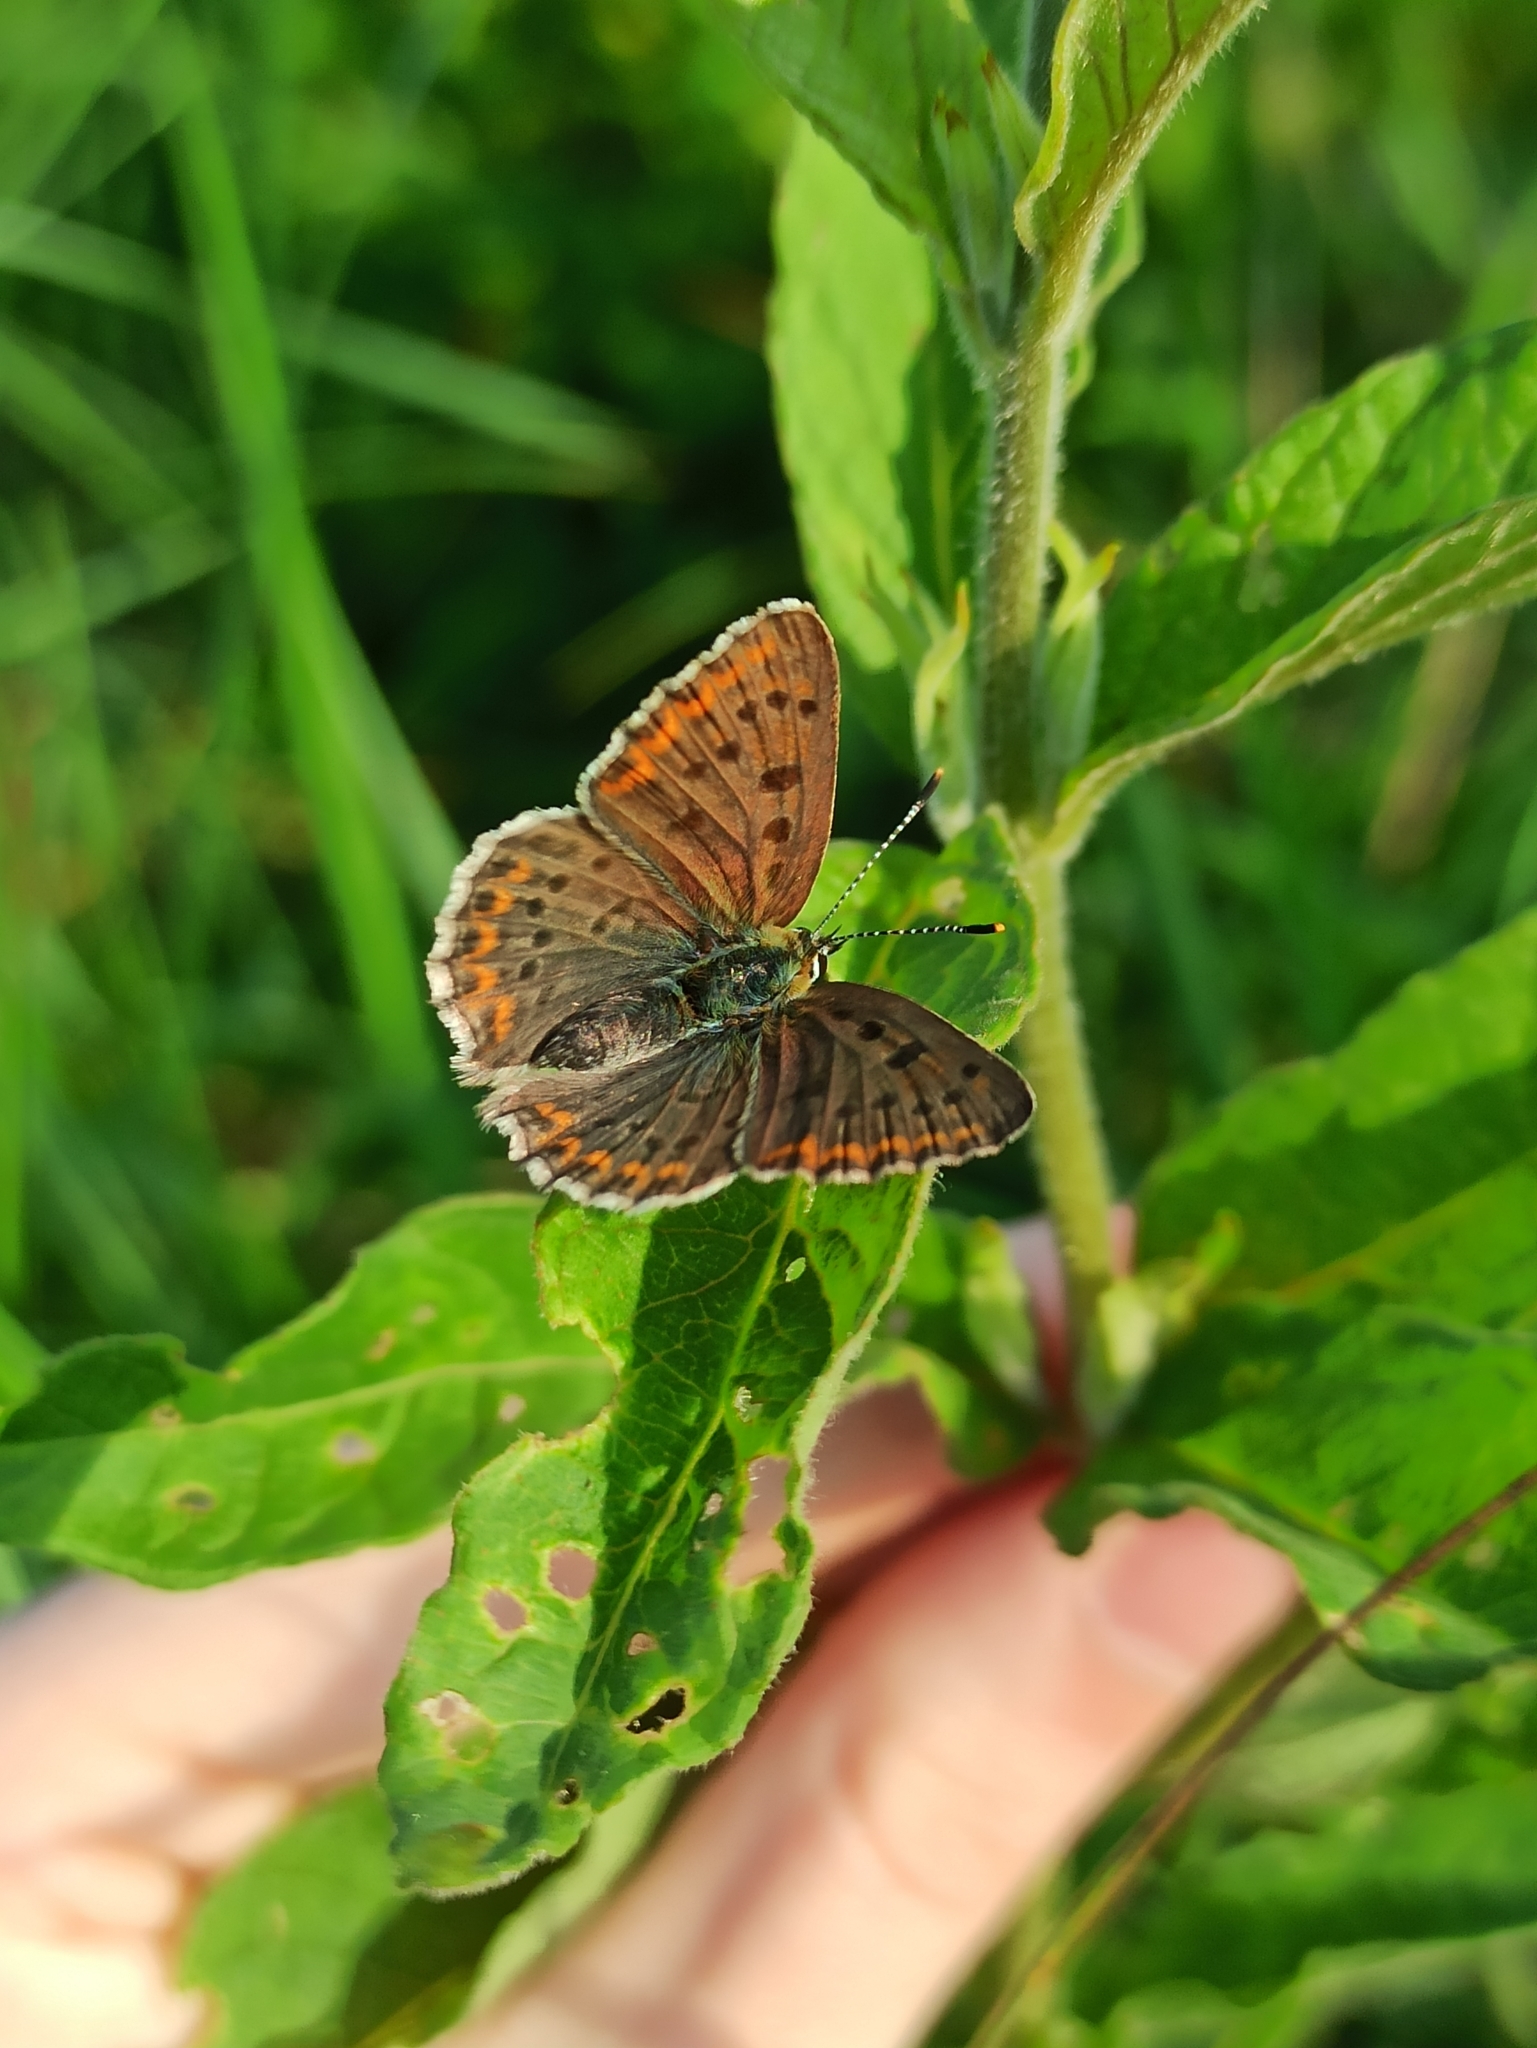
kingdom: Animalia
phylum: Arthropoda
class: Insecta
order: Lepidoptera
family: Lycaenidae
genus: Loweia
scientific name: Loweia tityrus
